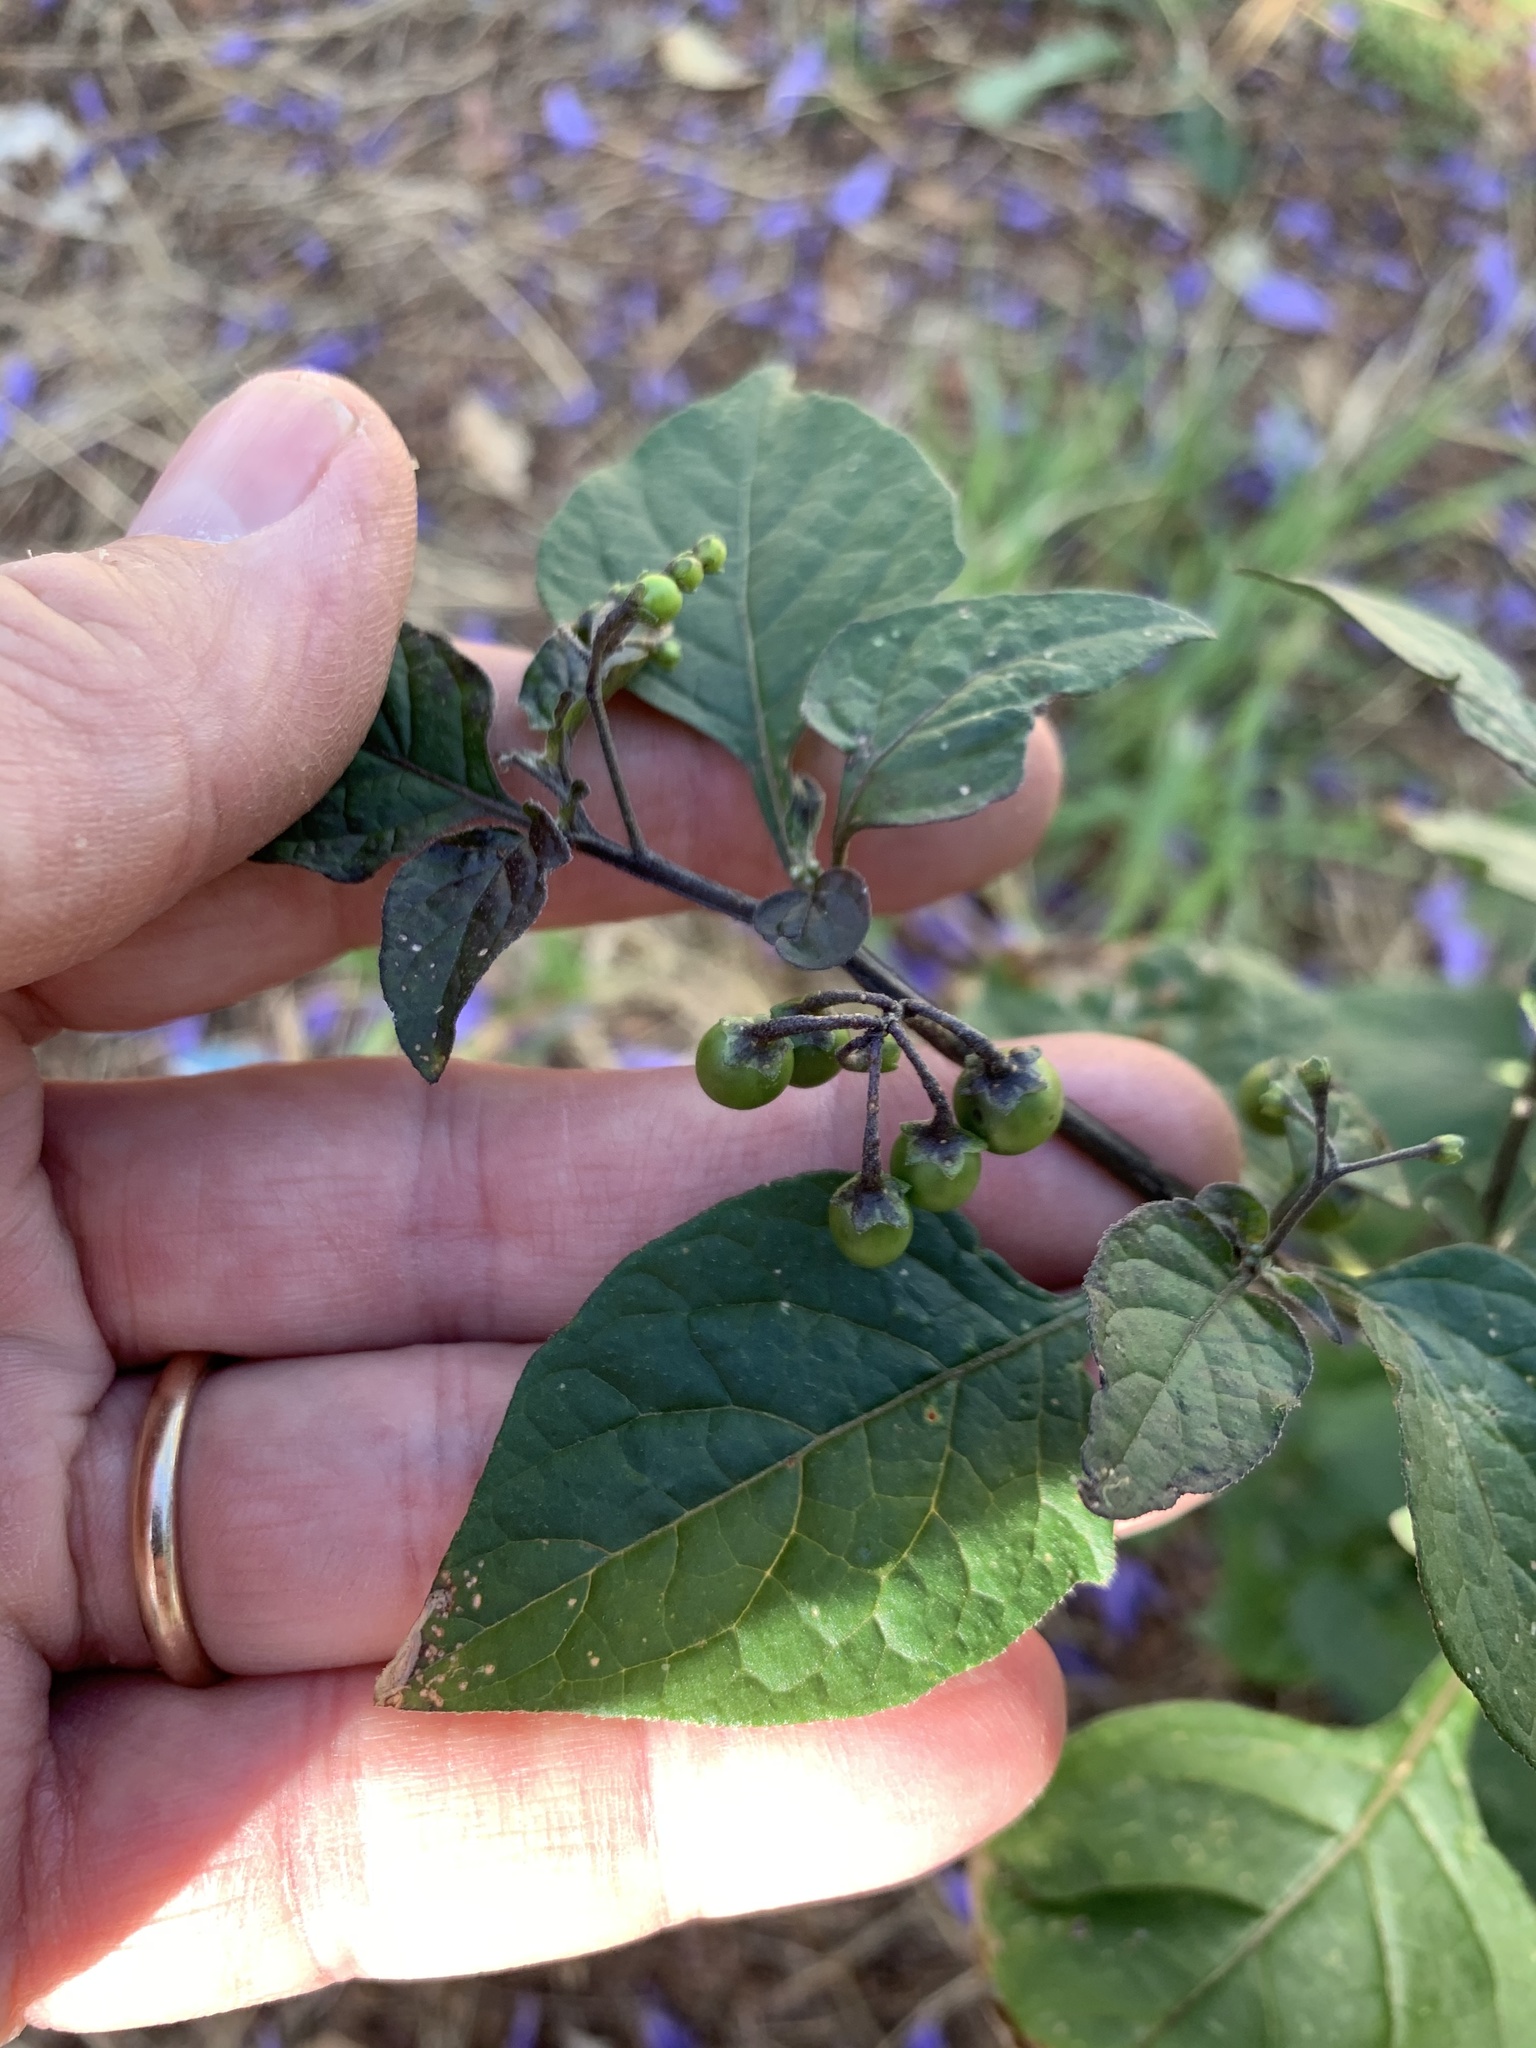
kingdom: Plantae
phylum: Tracheophyta
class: Magnoliopsida
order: Solanales
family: Solanaceae
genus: Solanum
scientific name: Solanum nigrum
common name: Black nightshade
